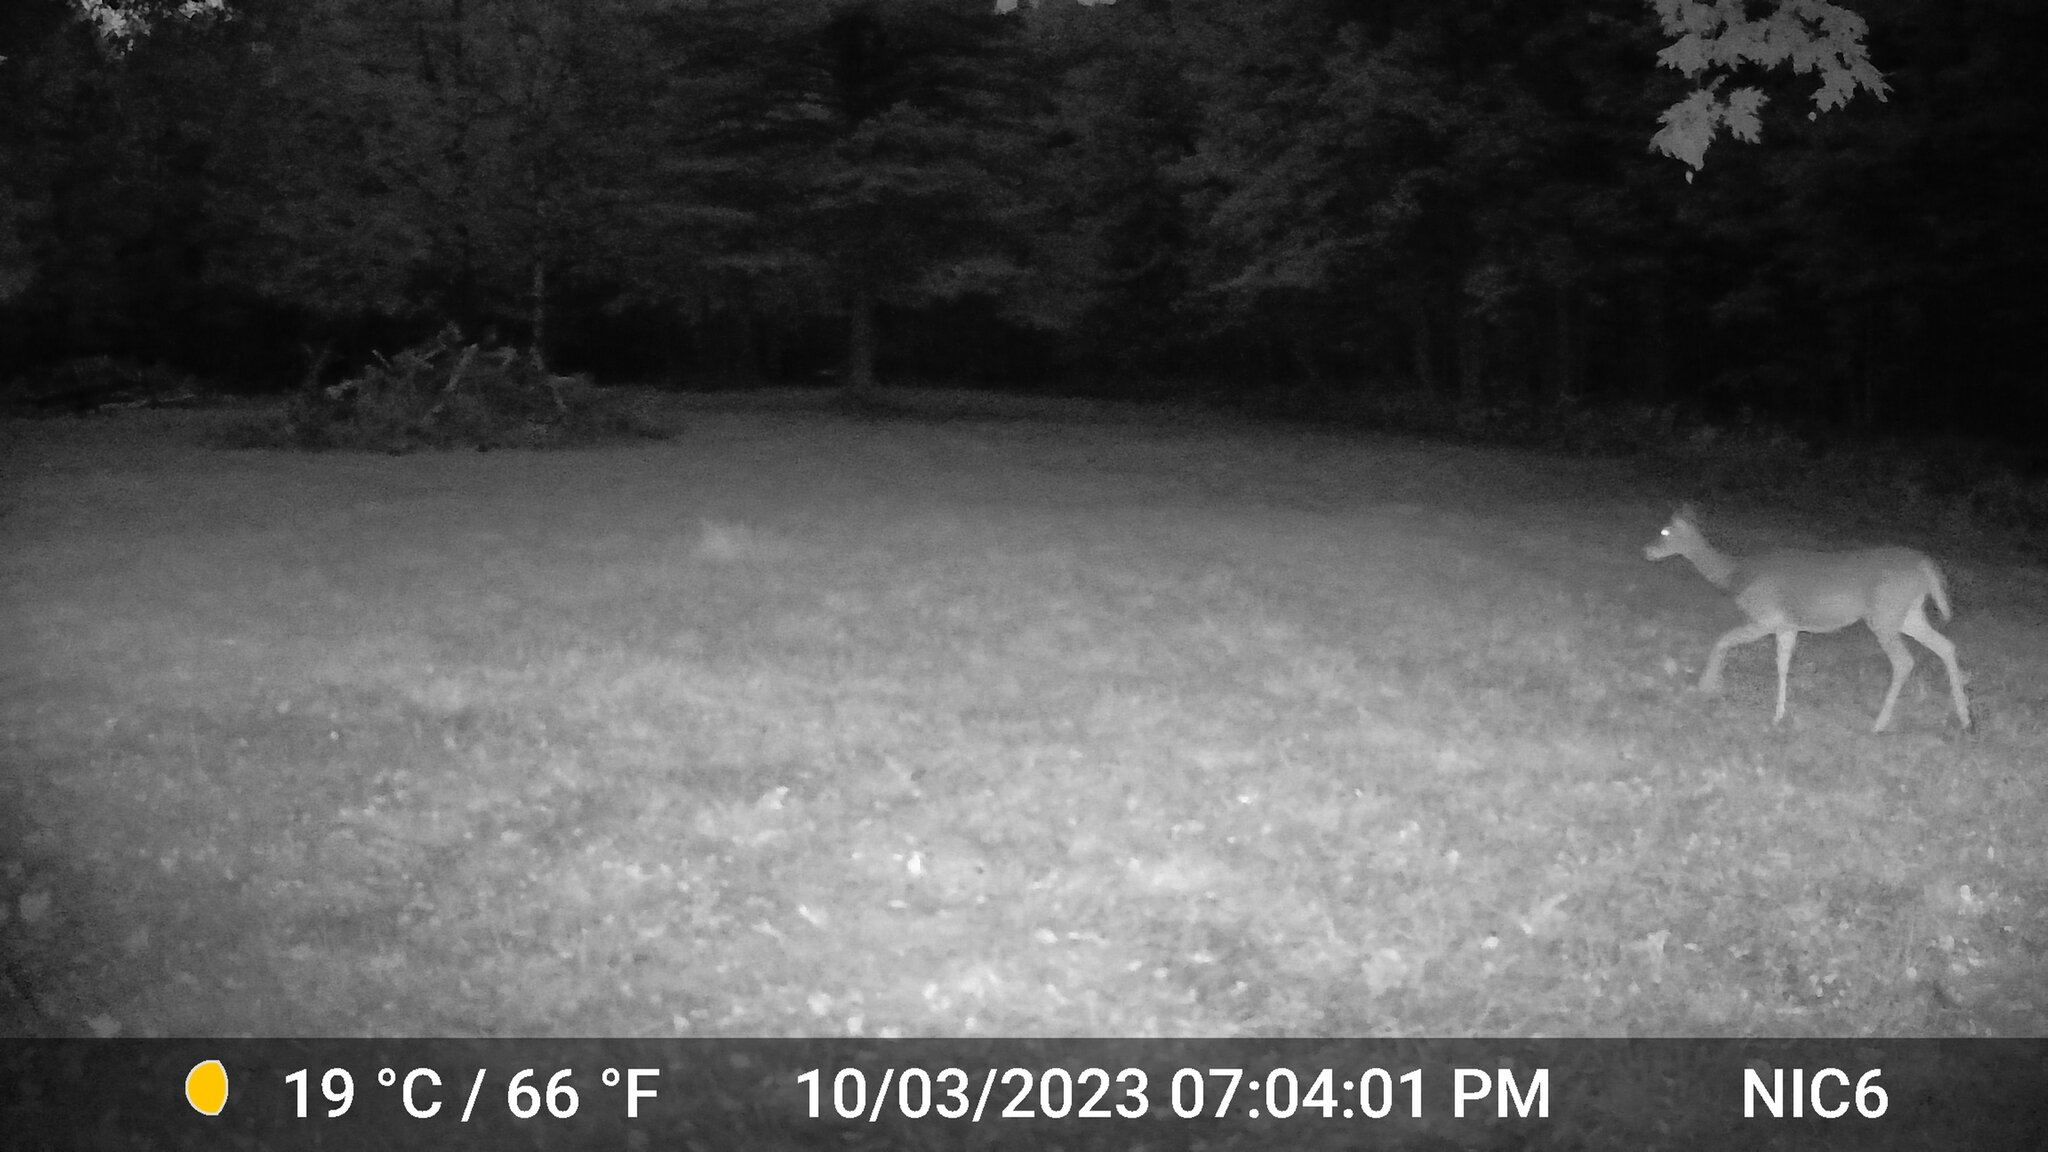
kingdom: Animalia
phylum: Chordata
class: Mammalia
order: Artiodactyla
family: Cervidae
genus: Odocoileus
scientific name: Odocoileus virginianus
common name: White-tailed deer
